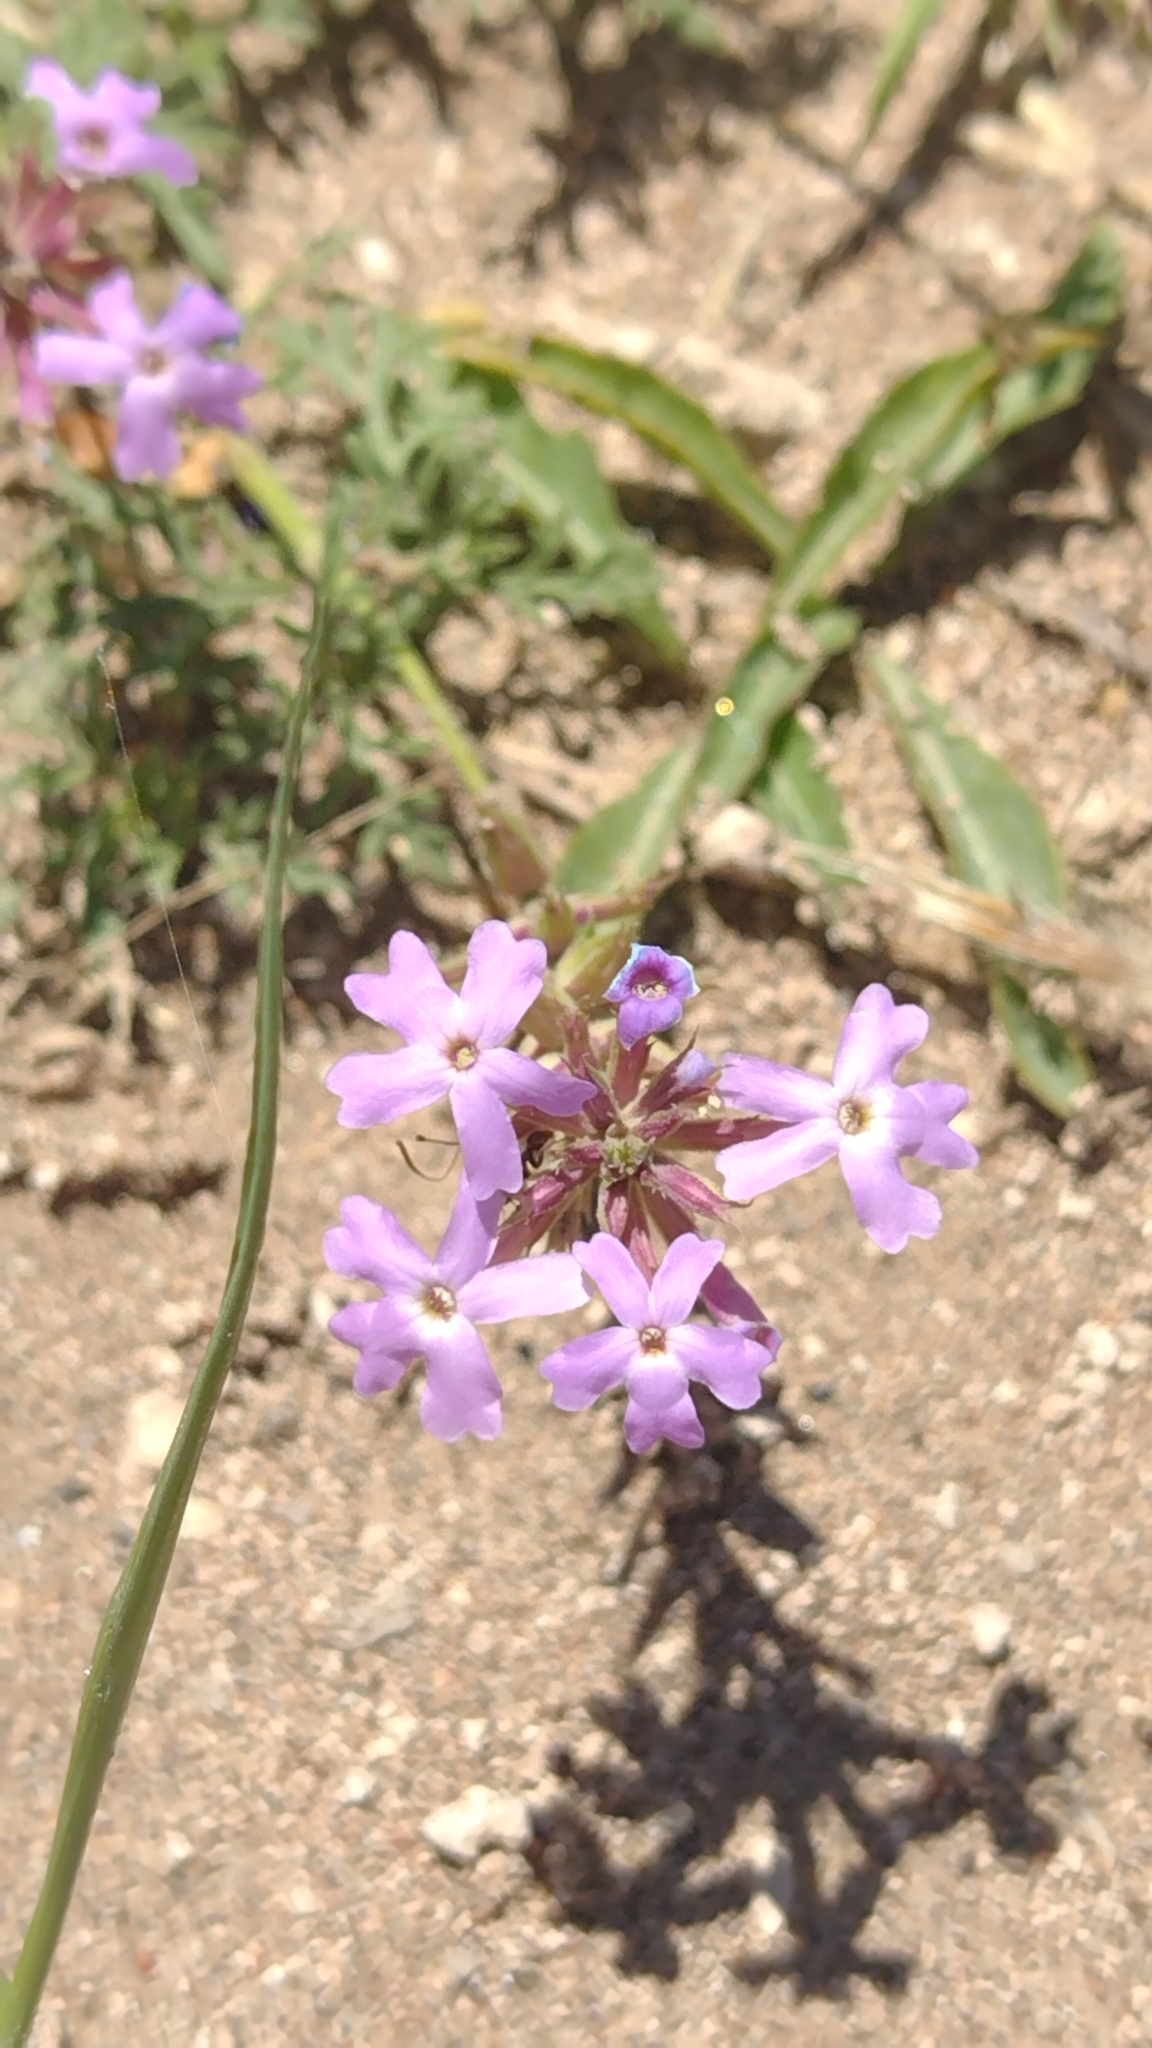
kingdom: Plantae
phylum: Tracheophyta
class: Magnoliopsida
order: Lamiales
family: Verbenaceae
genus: Verbena
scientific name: Verbena tenera
